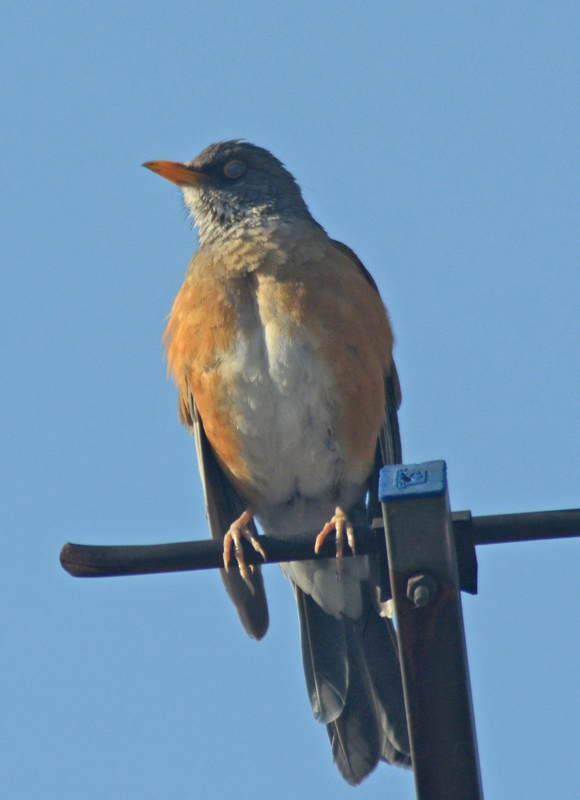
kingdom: Animalia
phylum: Chordata
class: Aves
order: Passeriformes
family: Turdidae
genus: Turdus
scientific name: Turdus rufopalliatus
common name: Rufous-backed robin
